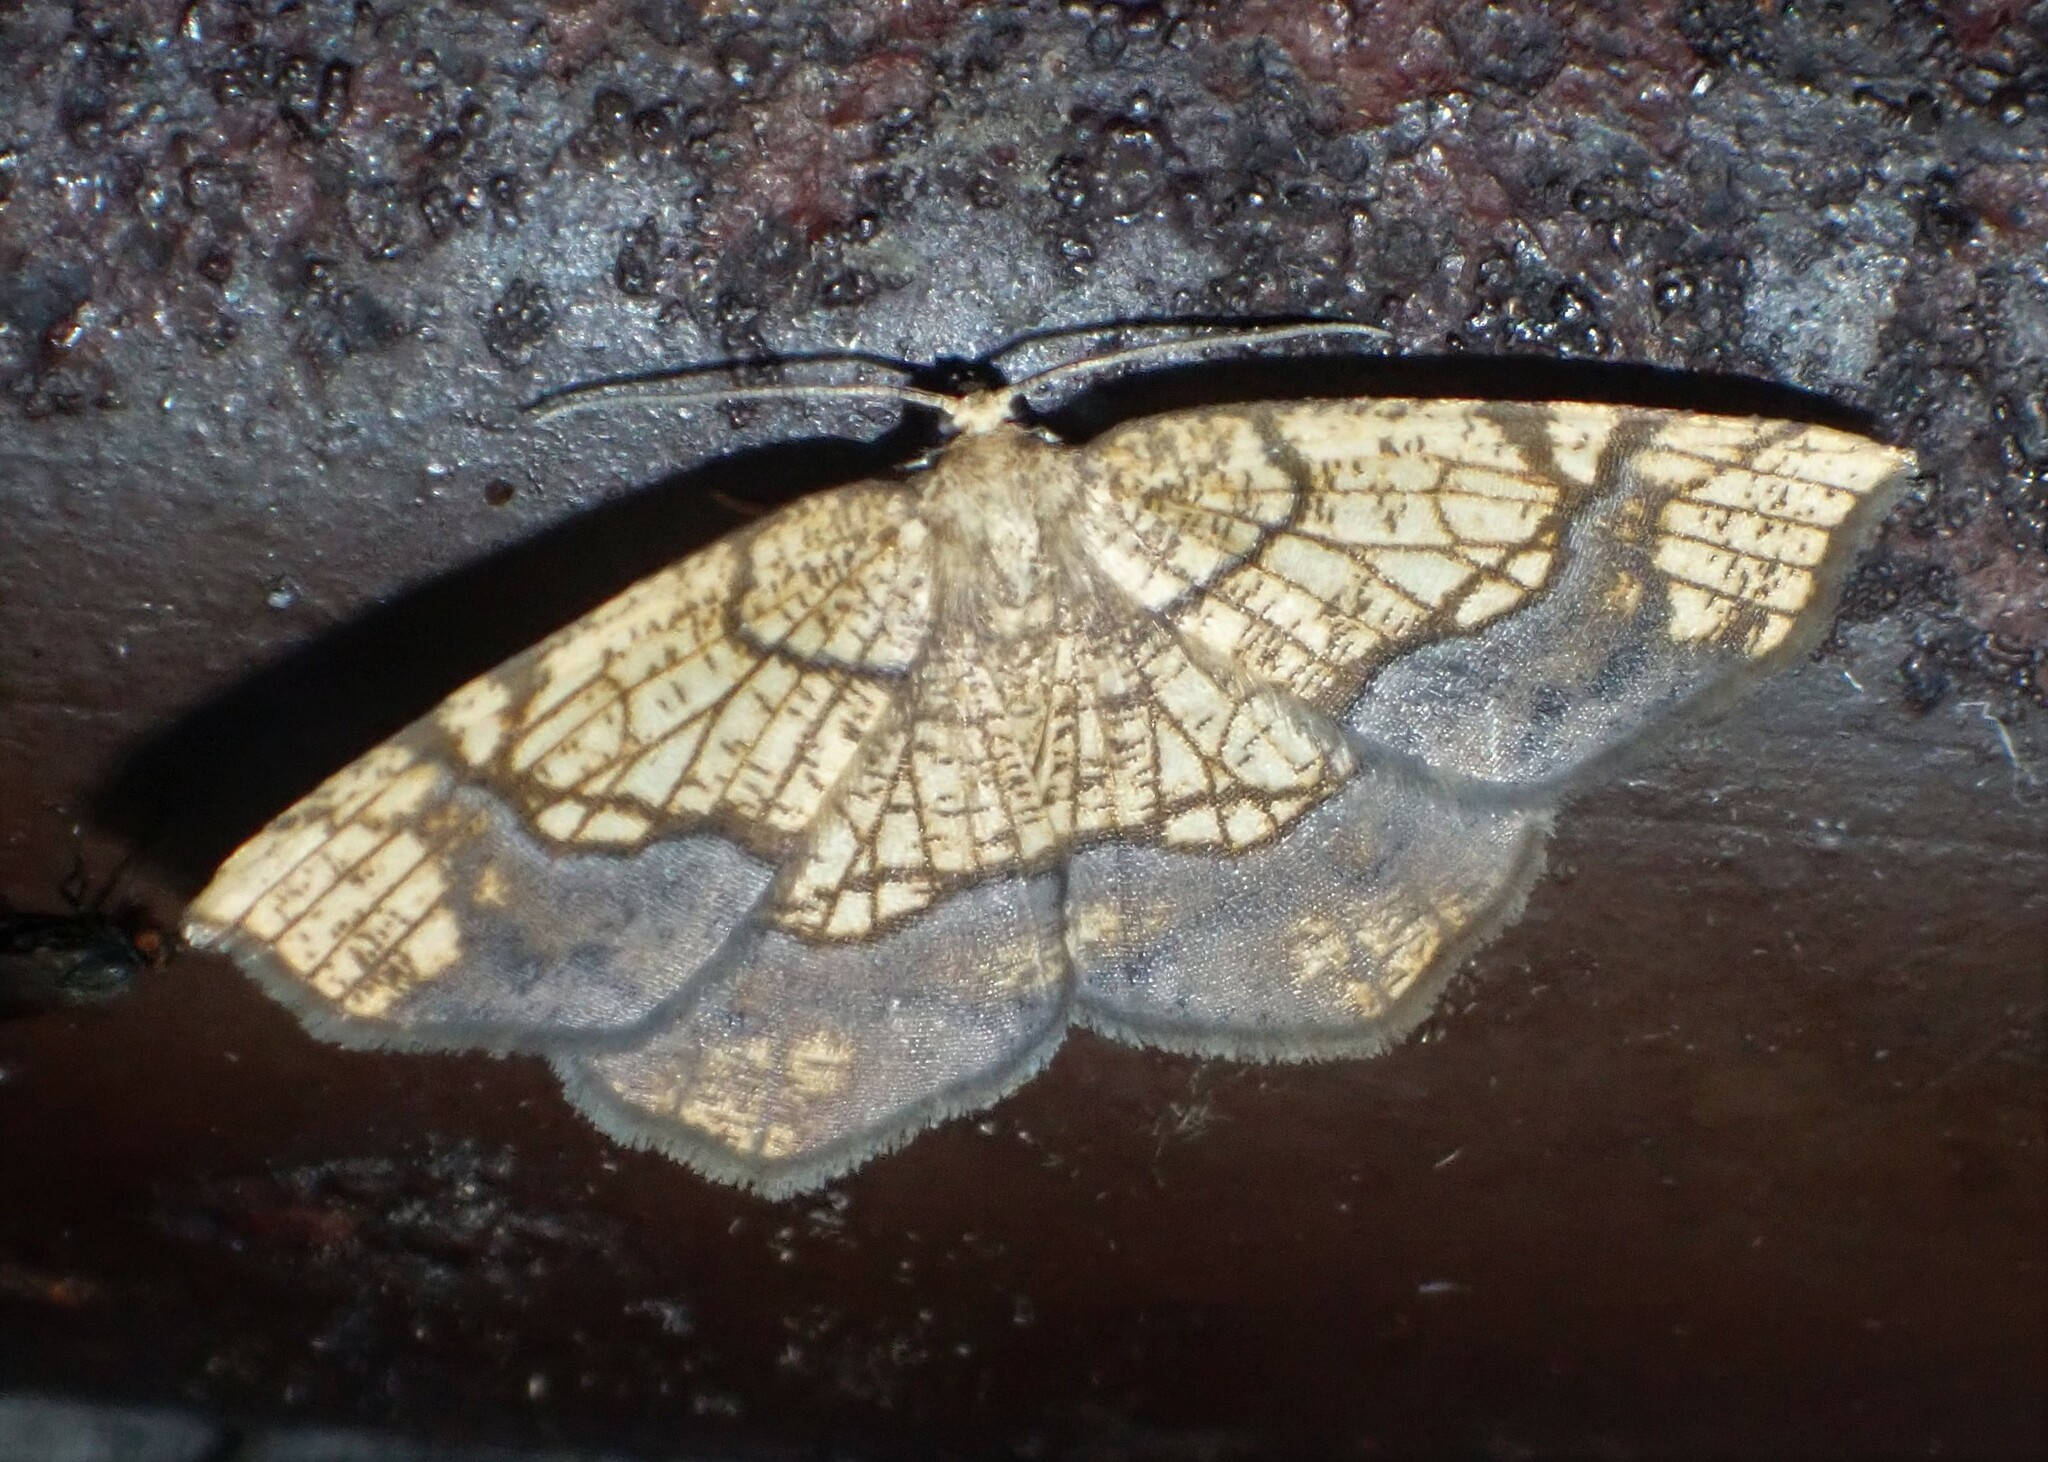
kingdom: Animalia
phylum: Arthropoda
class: Insecta
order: Lepidoptera
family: Geometridae
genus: Nematocampa
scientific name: Nematocampa resistaria
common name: Horned spanworm moth
